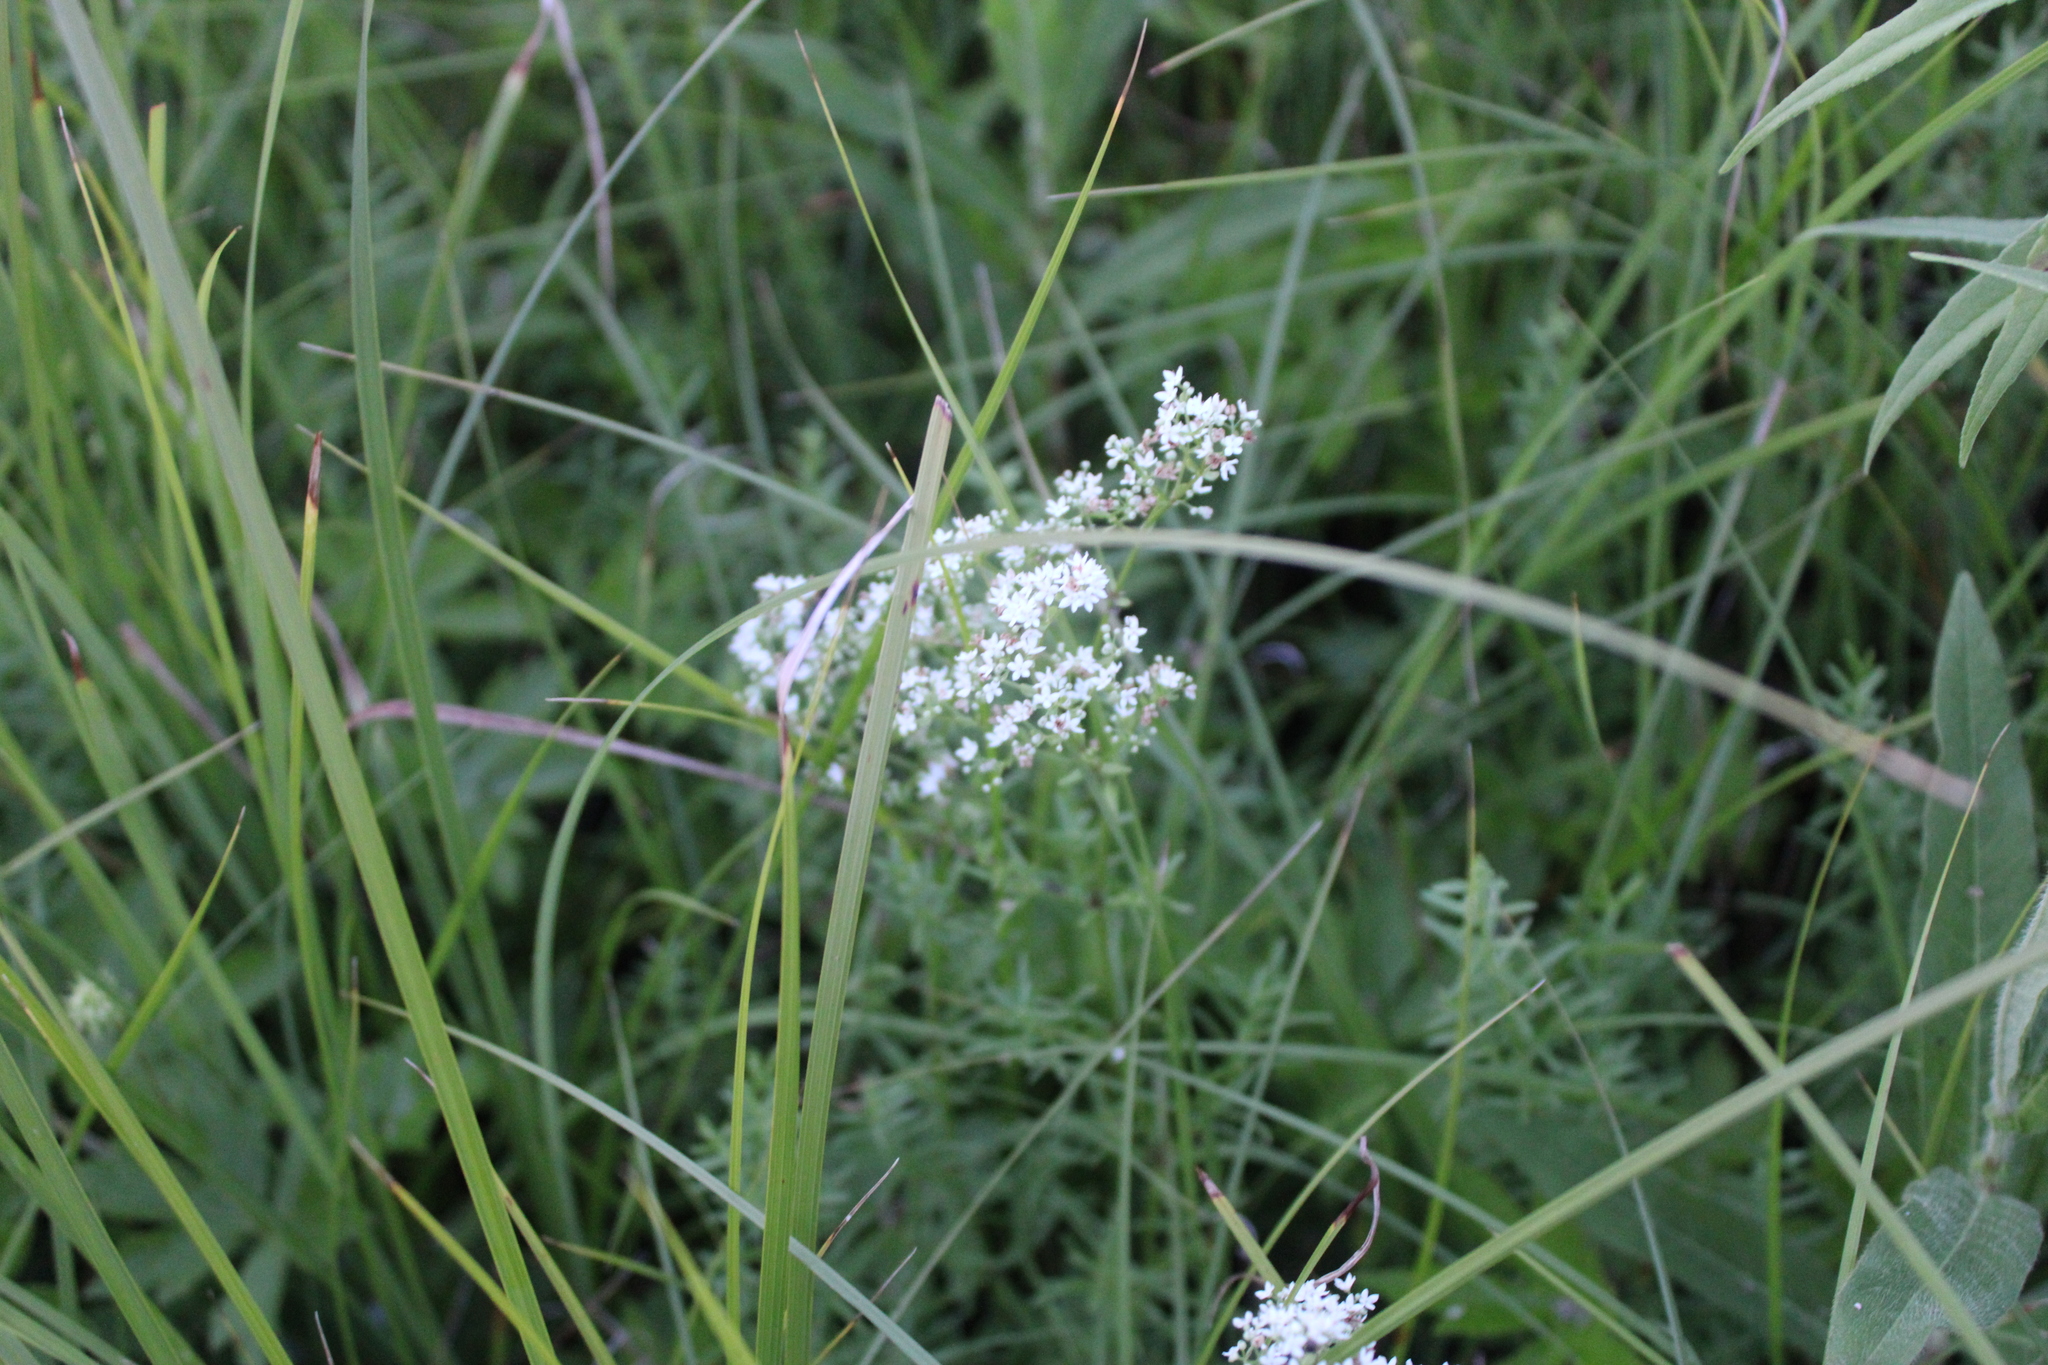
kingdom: Plantae
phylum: Tracheophyta
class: Magnoliopsida
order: Gentianales
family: Rubiaceae
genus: Galium
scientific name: Galium boreale
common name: Northern bedstraw
